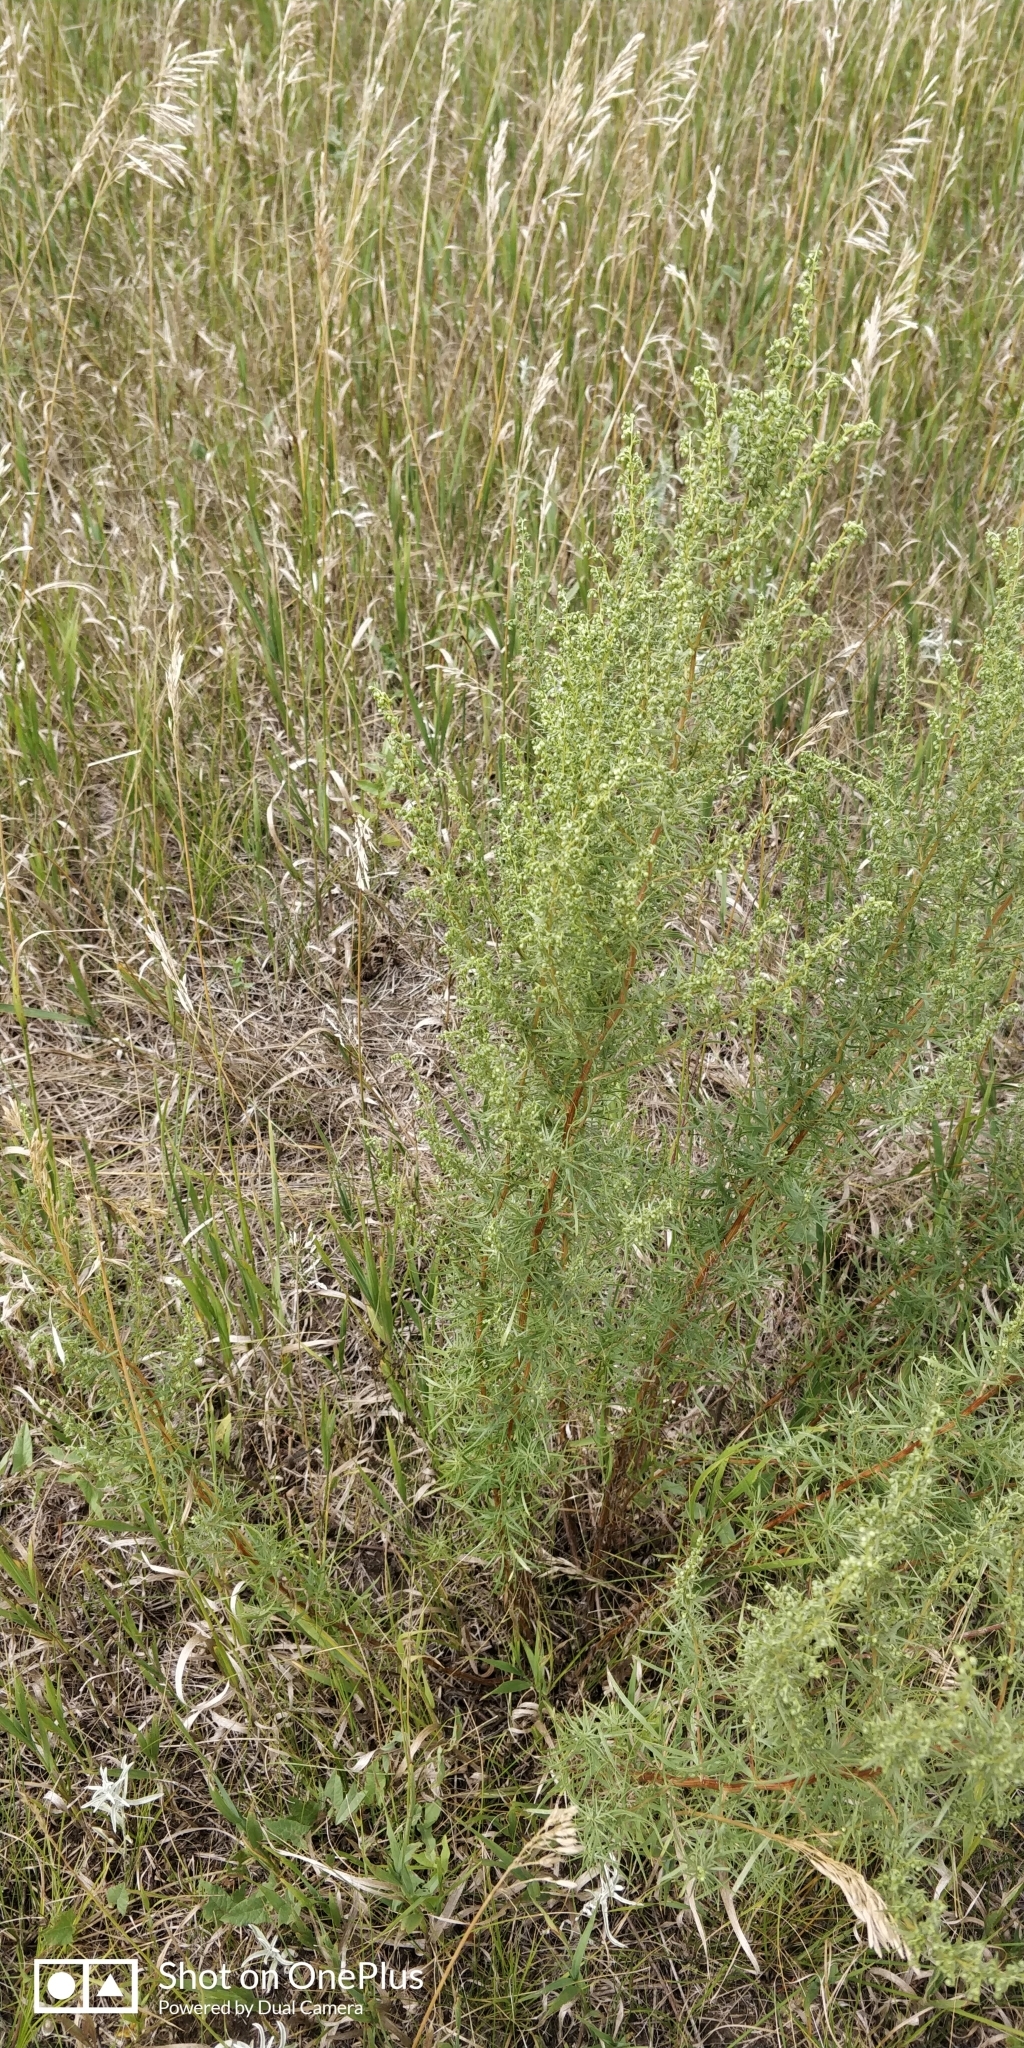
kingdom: Plantae
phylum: Tracheophyta
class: Magnoliopsida
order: Asterales
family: Asteraceae
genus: Artemisia
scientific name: Artemisia dracunculus
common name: Tarragon
